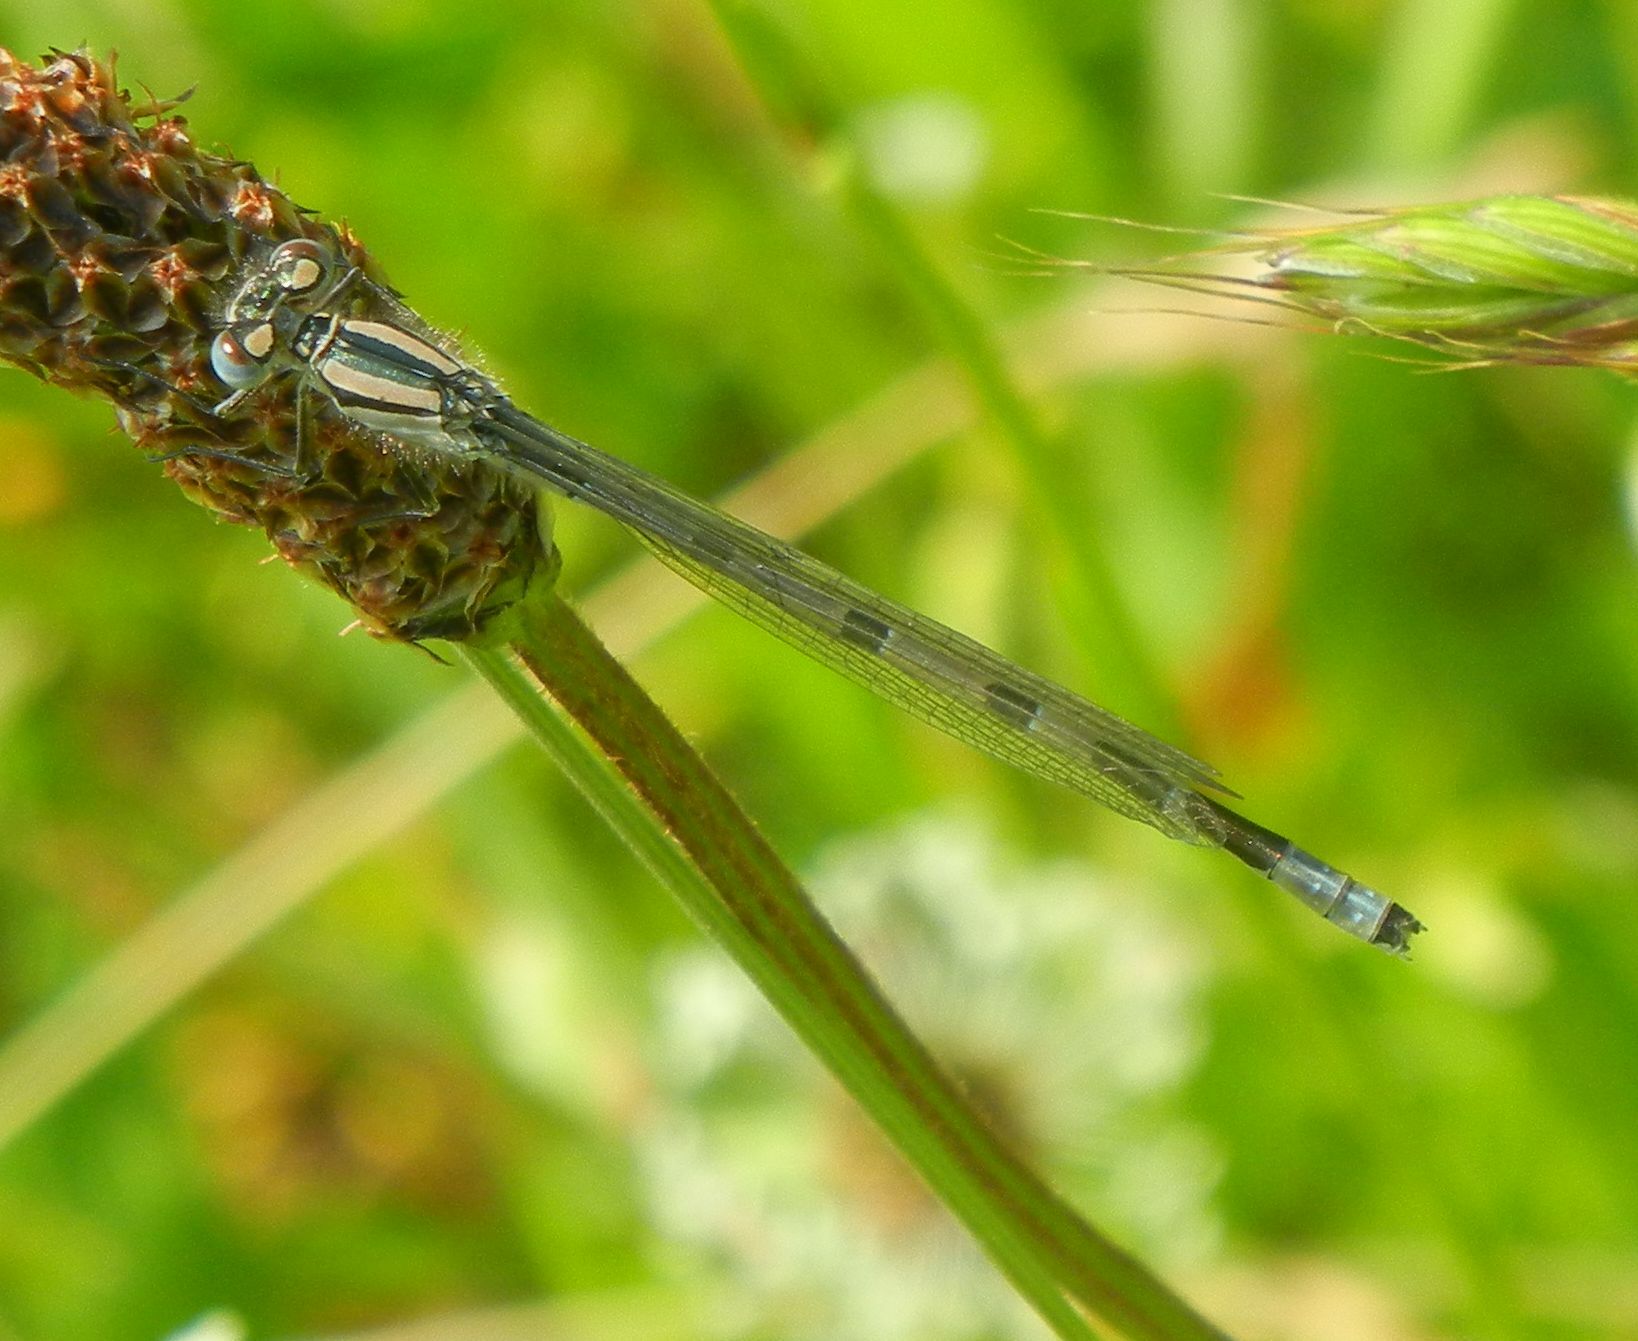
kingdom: Animalia
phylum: Arthropoda
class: Insecta
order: Odonata
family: Coenagrionidae
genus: Enallagma
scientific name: Enallagma cyathigerum
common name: Common blue damselfly
